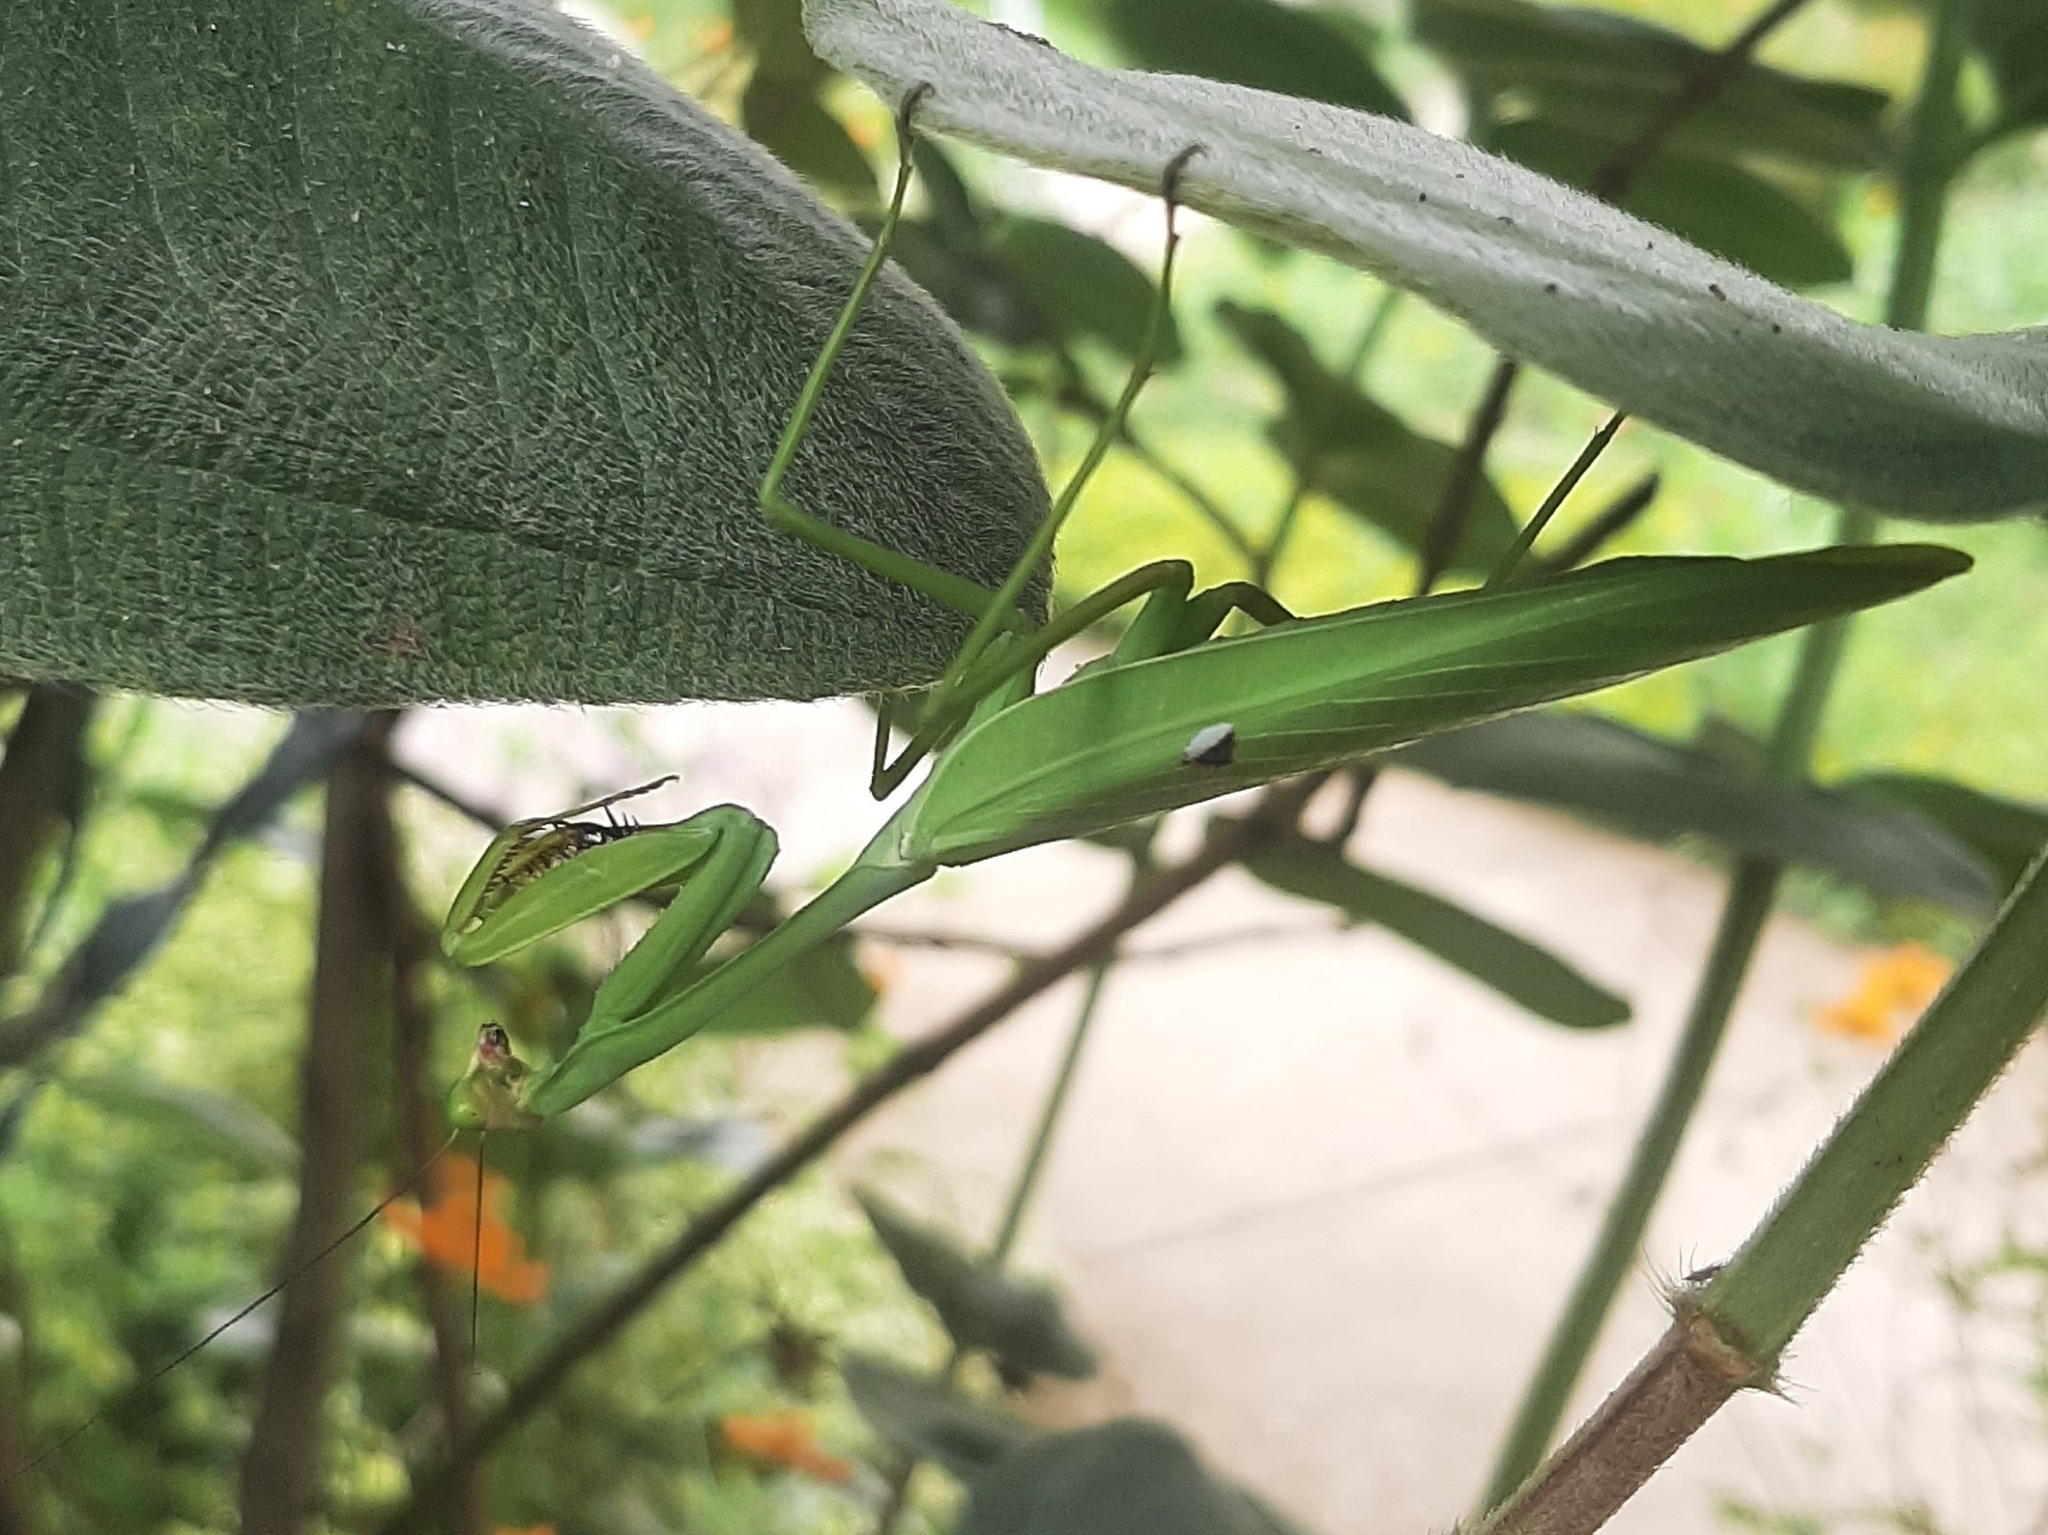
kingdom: Animalia
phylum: Arthropoda
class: Insecta
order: Mantodea
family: Mantidae
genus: Stagmatoptera
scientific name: Stagmatoptera pia
